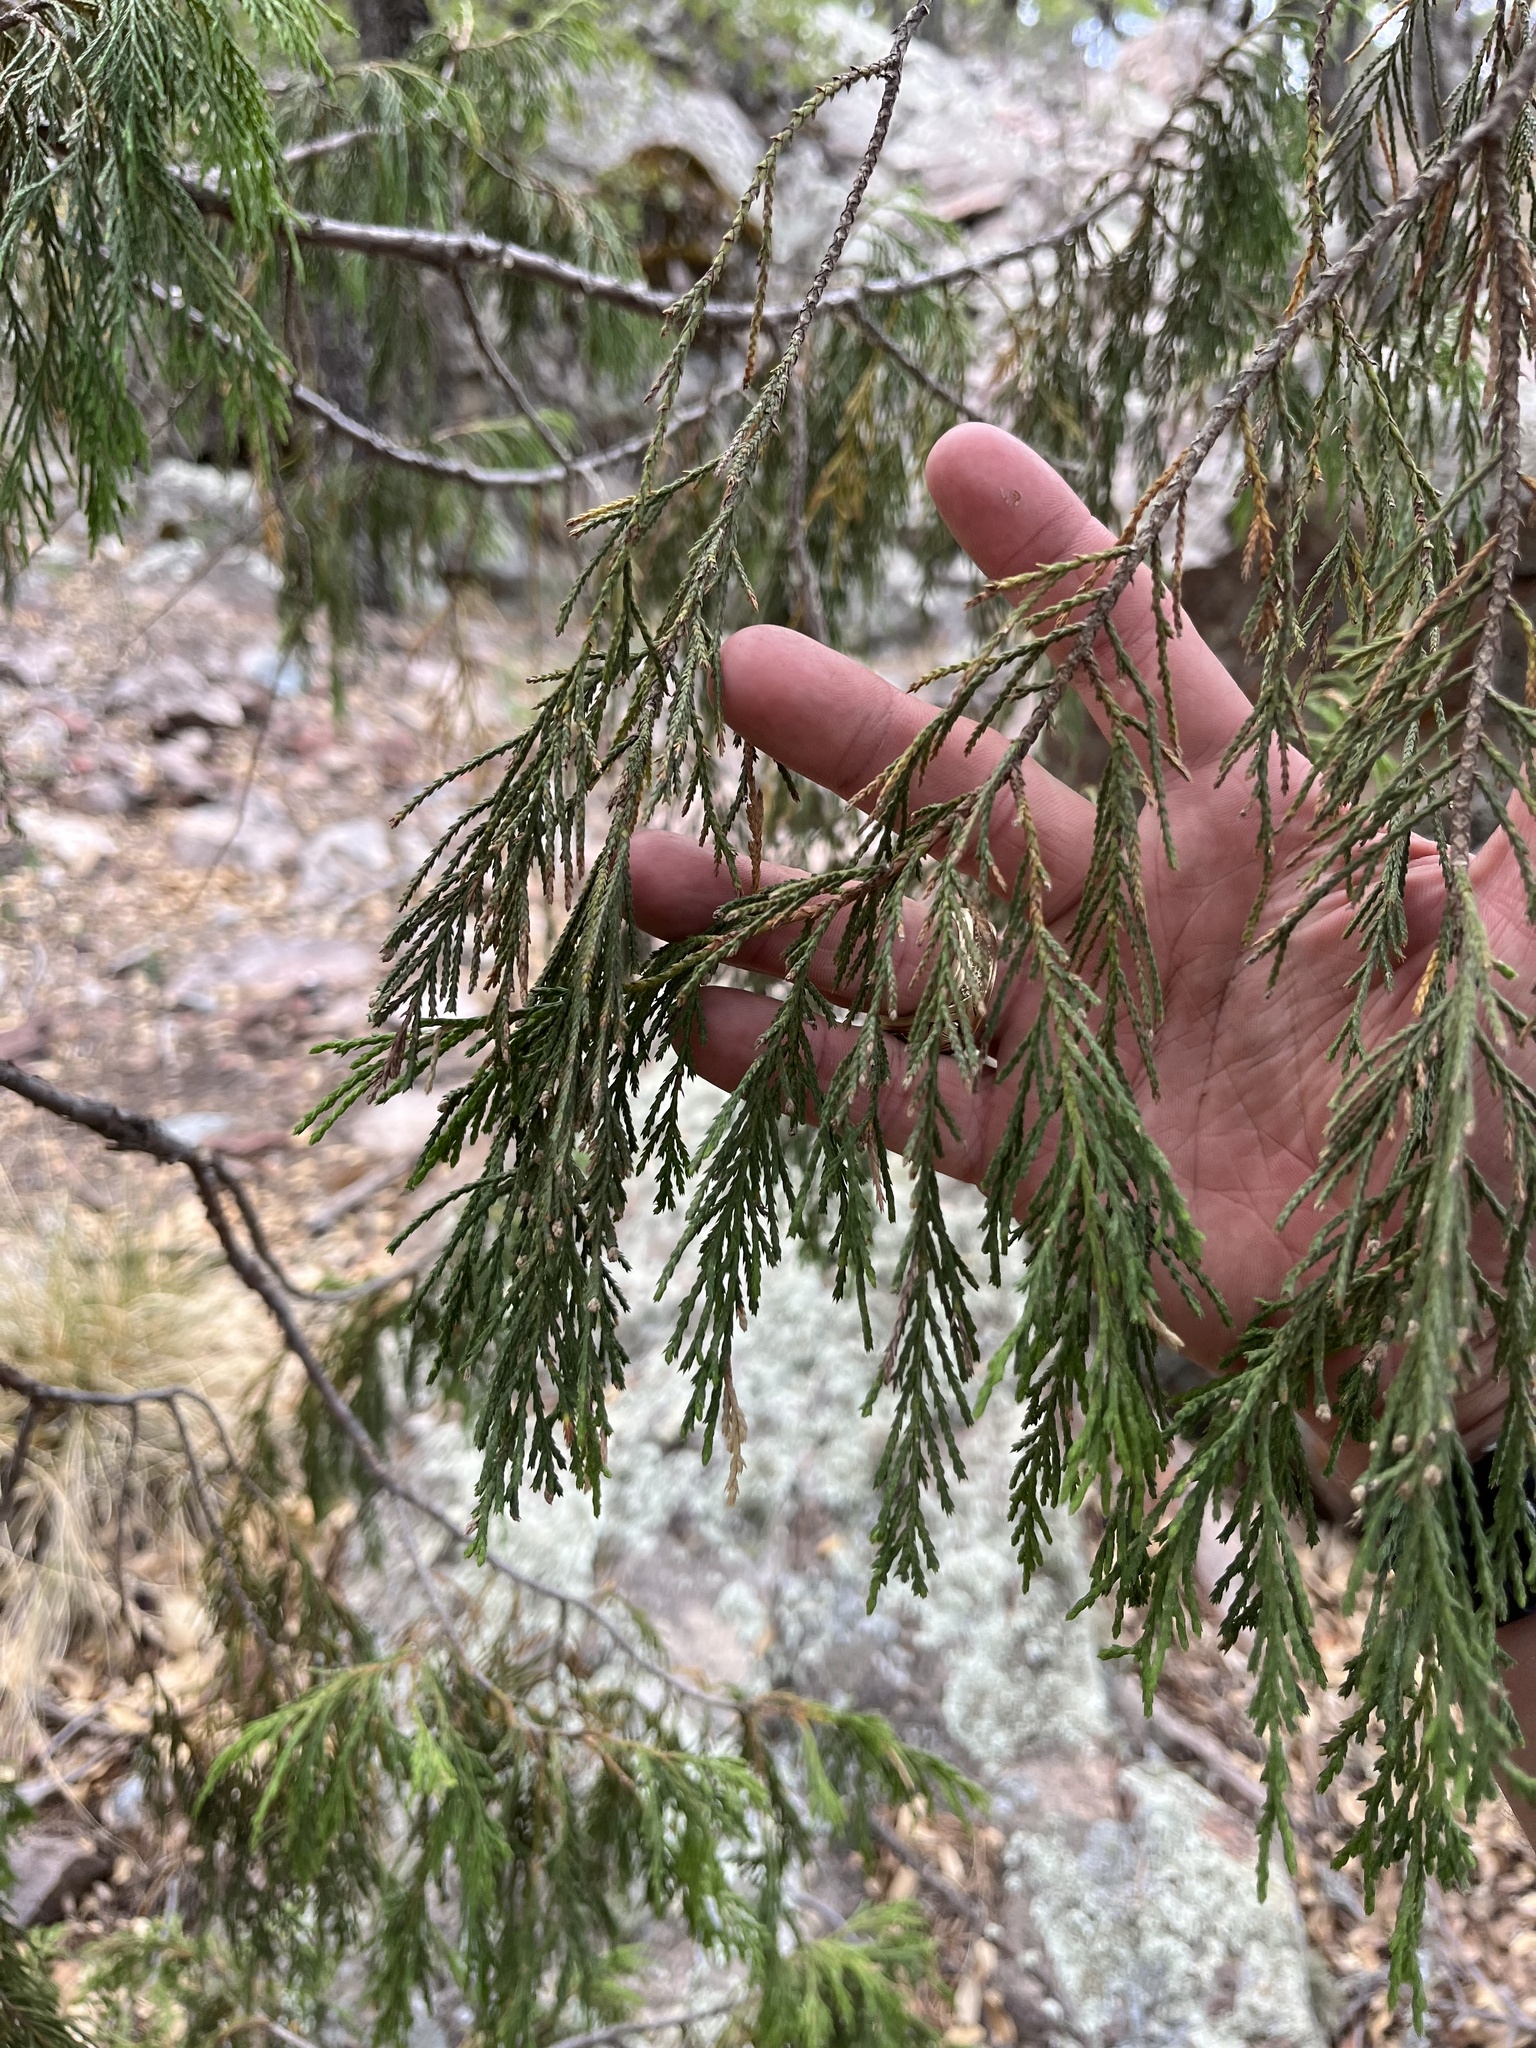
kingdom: Plantae
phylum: Tracheophyta
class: Pinopsida
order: Pinales
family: Cupressaceae
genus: Juniperus
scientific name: Juniperus flaccida
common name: Drooping juniper
